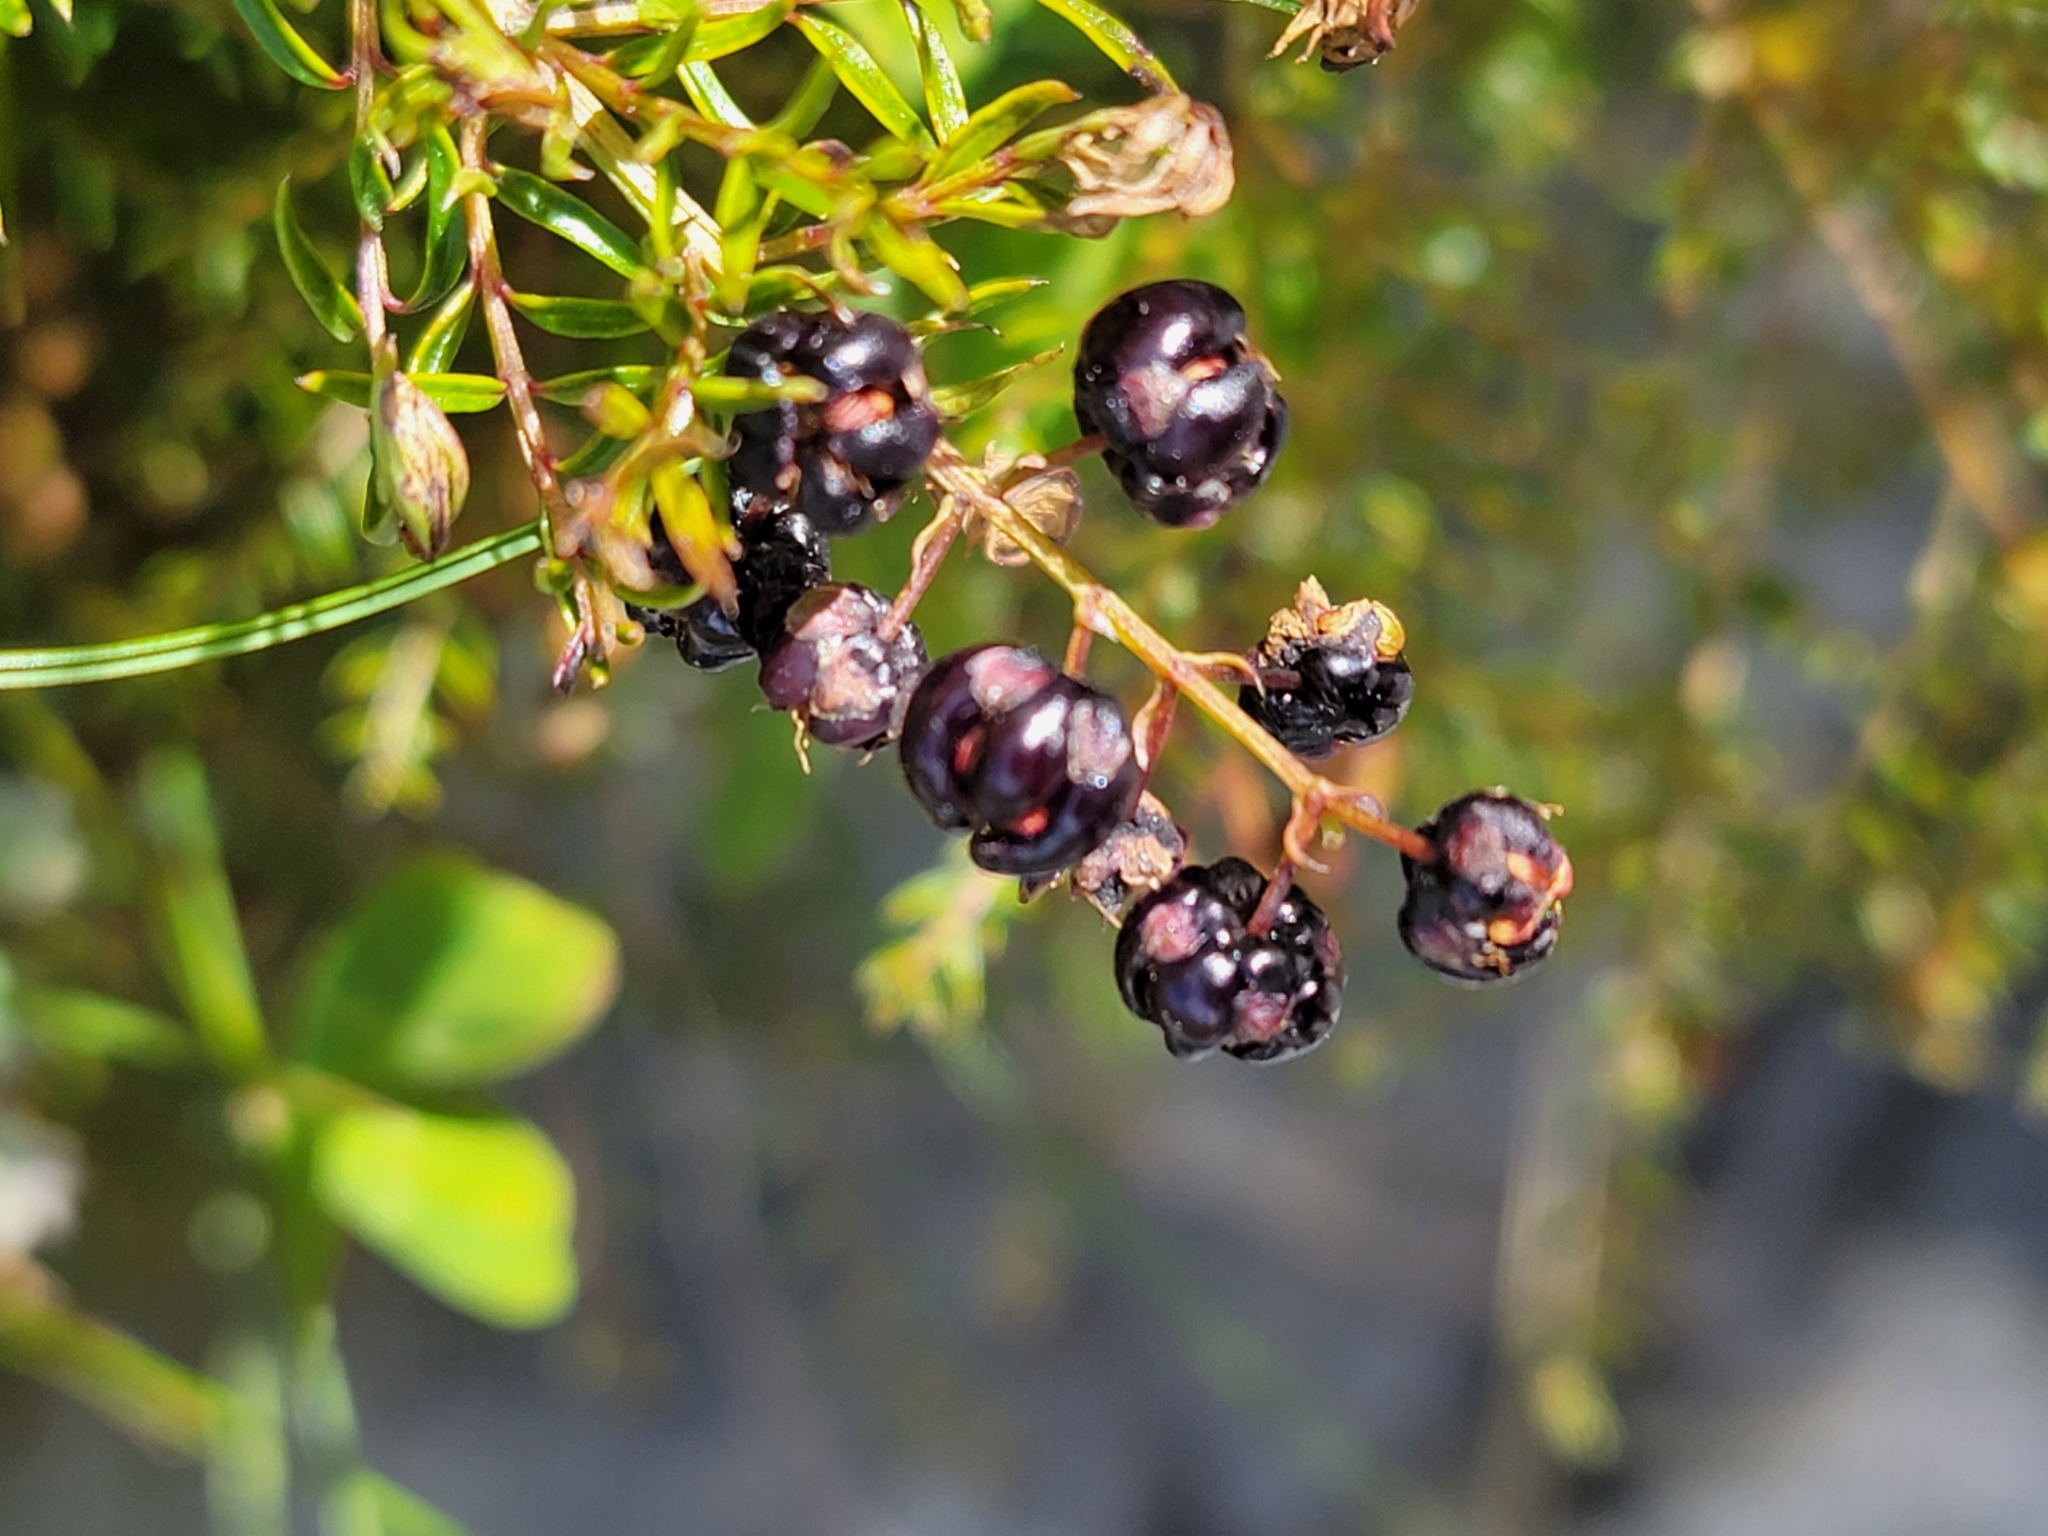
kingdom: Plantae
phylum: Tracheophyta
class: Magnoliopsida
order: Cucurbitales
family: Coriariaceae
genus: Coriaria
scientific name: Coriaria angustissima
